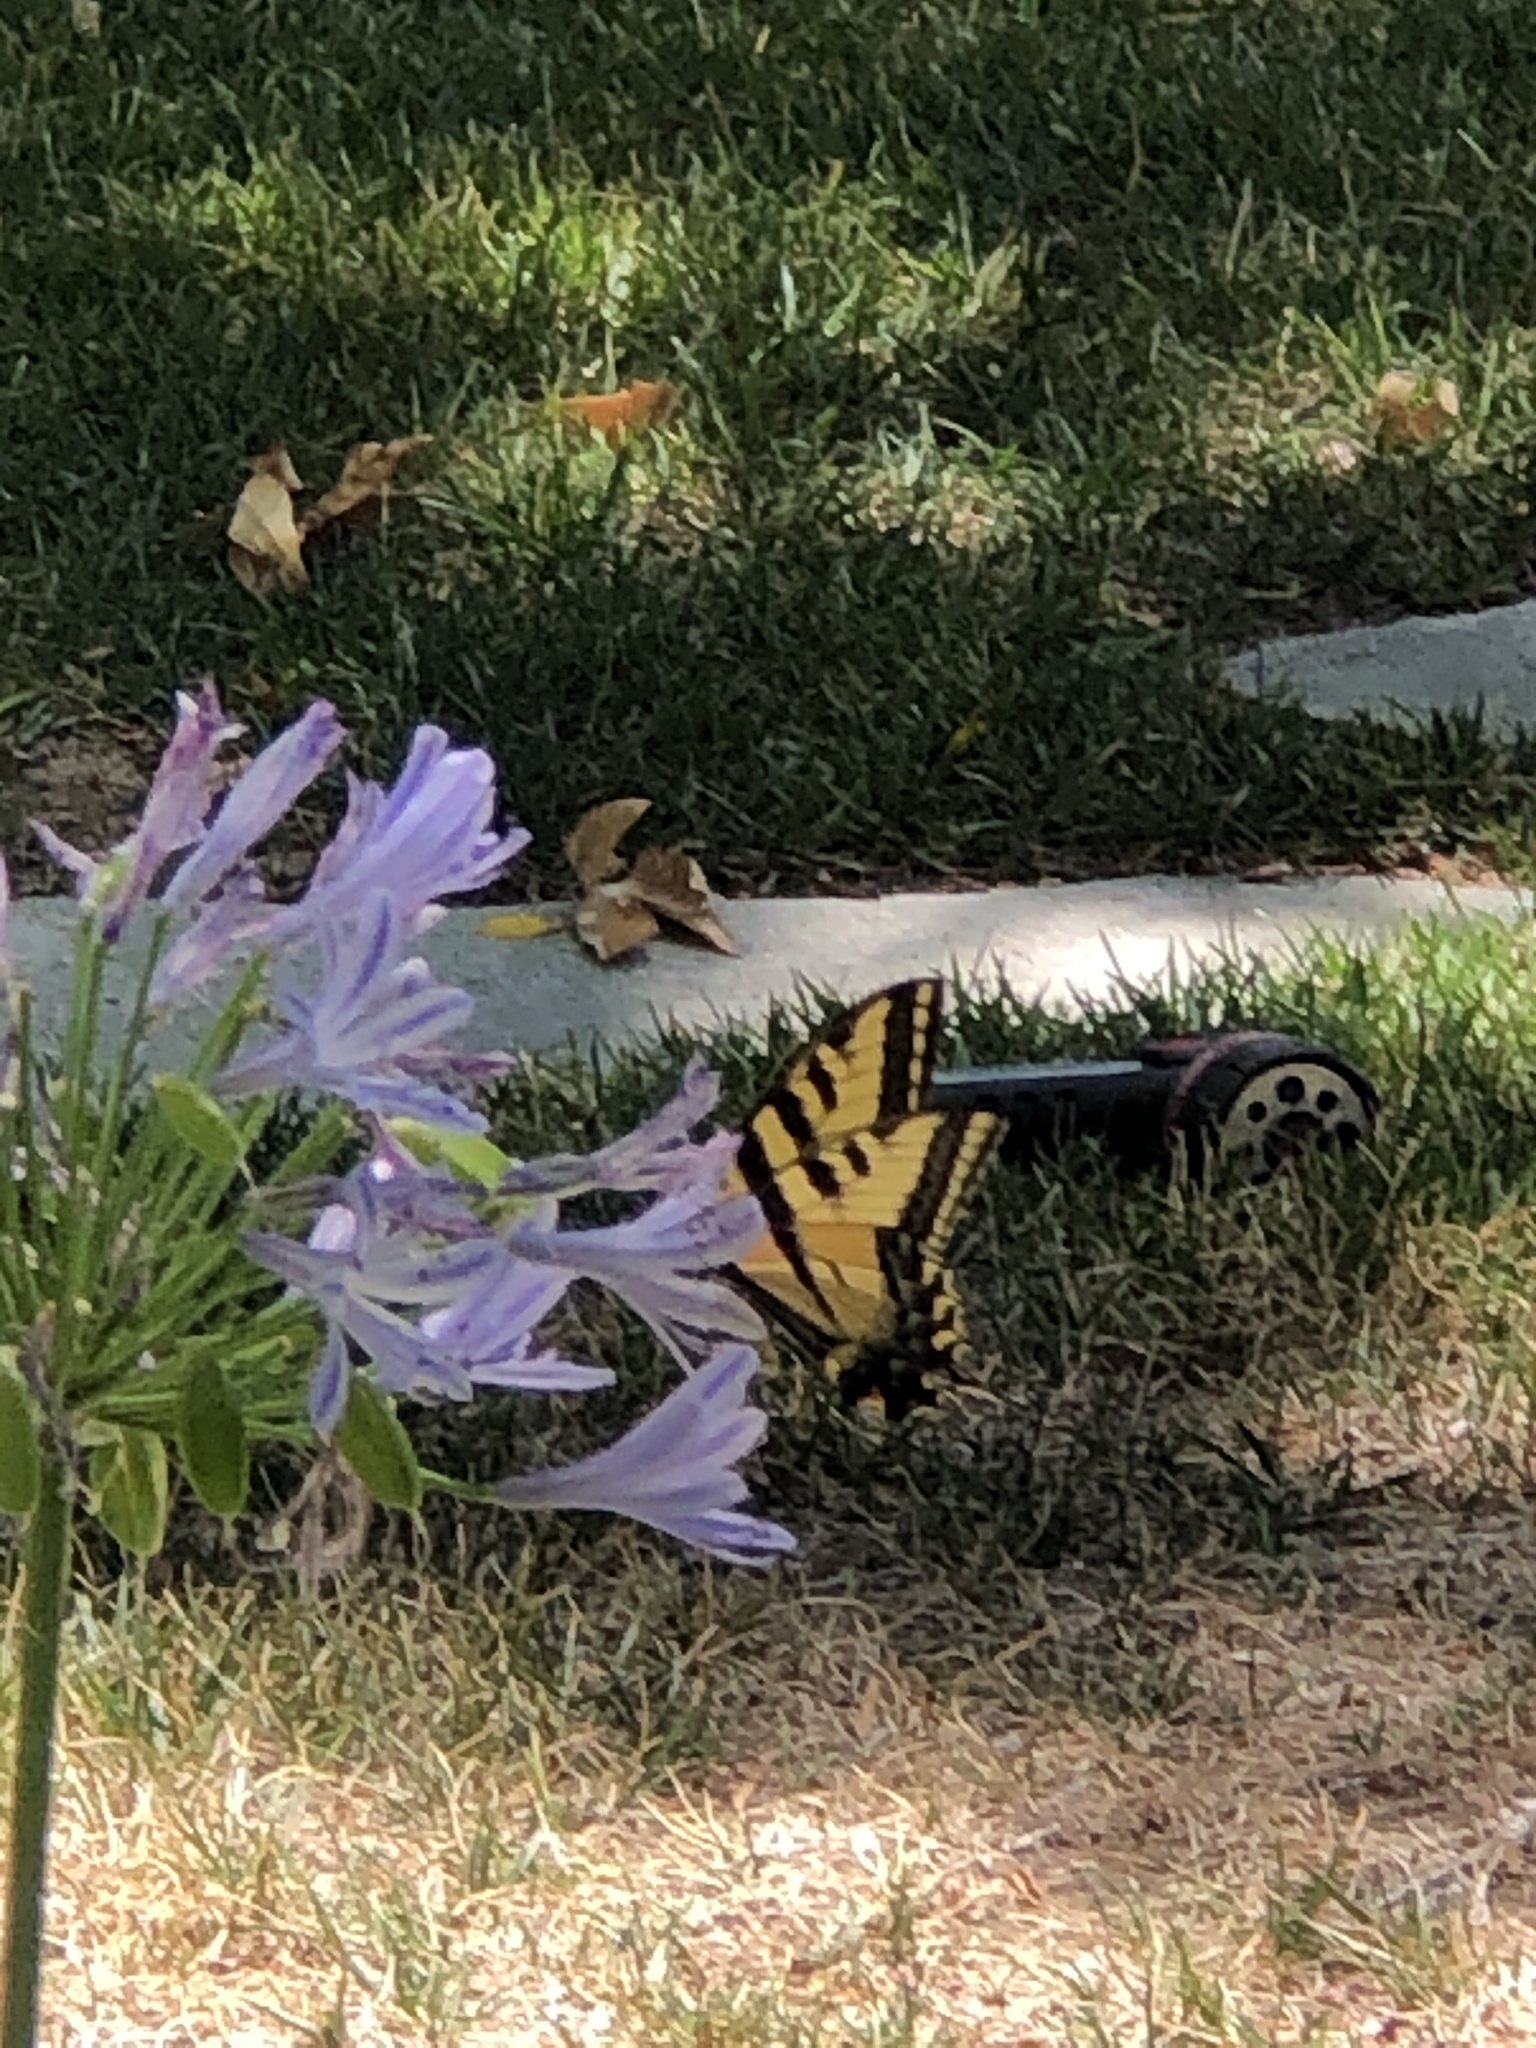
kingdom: Animalia
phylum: Arthropoda
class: Insecta
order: Lepidoptera
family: Papilionidae
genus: Papilio
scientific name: Papilio rutulus
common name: Western tiger swallowtail
